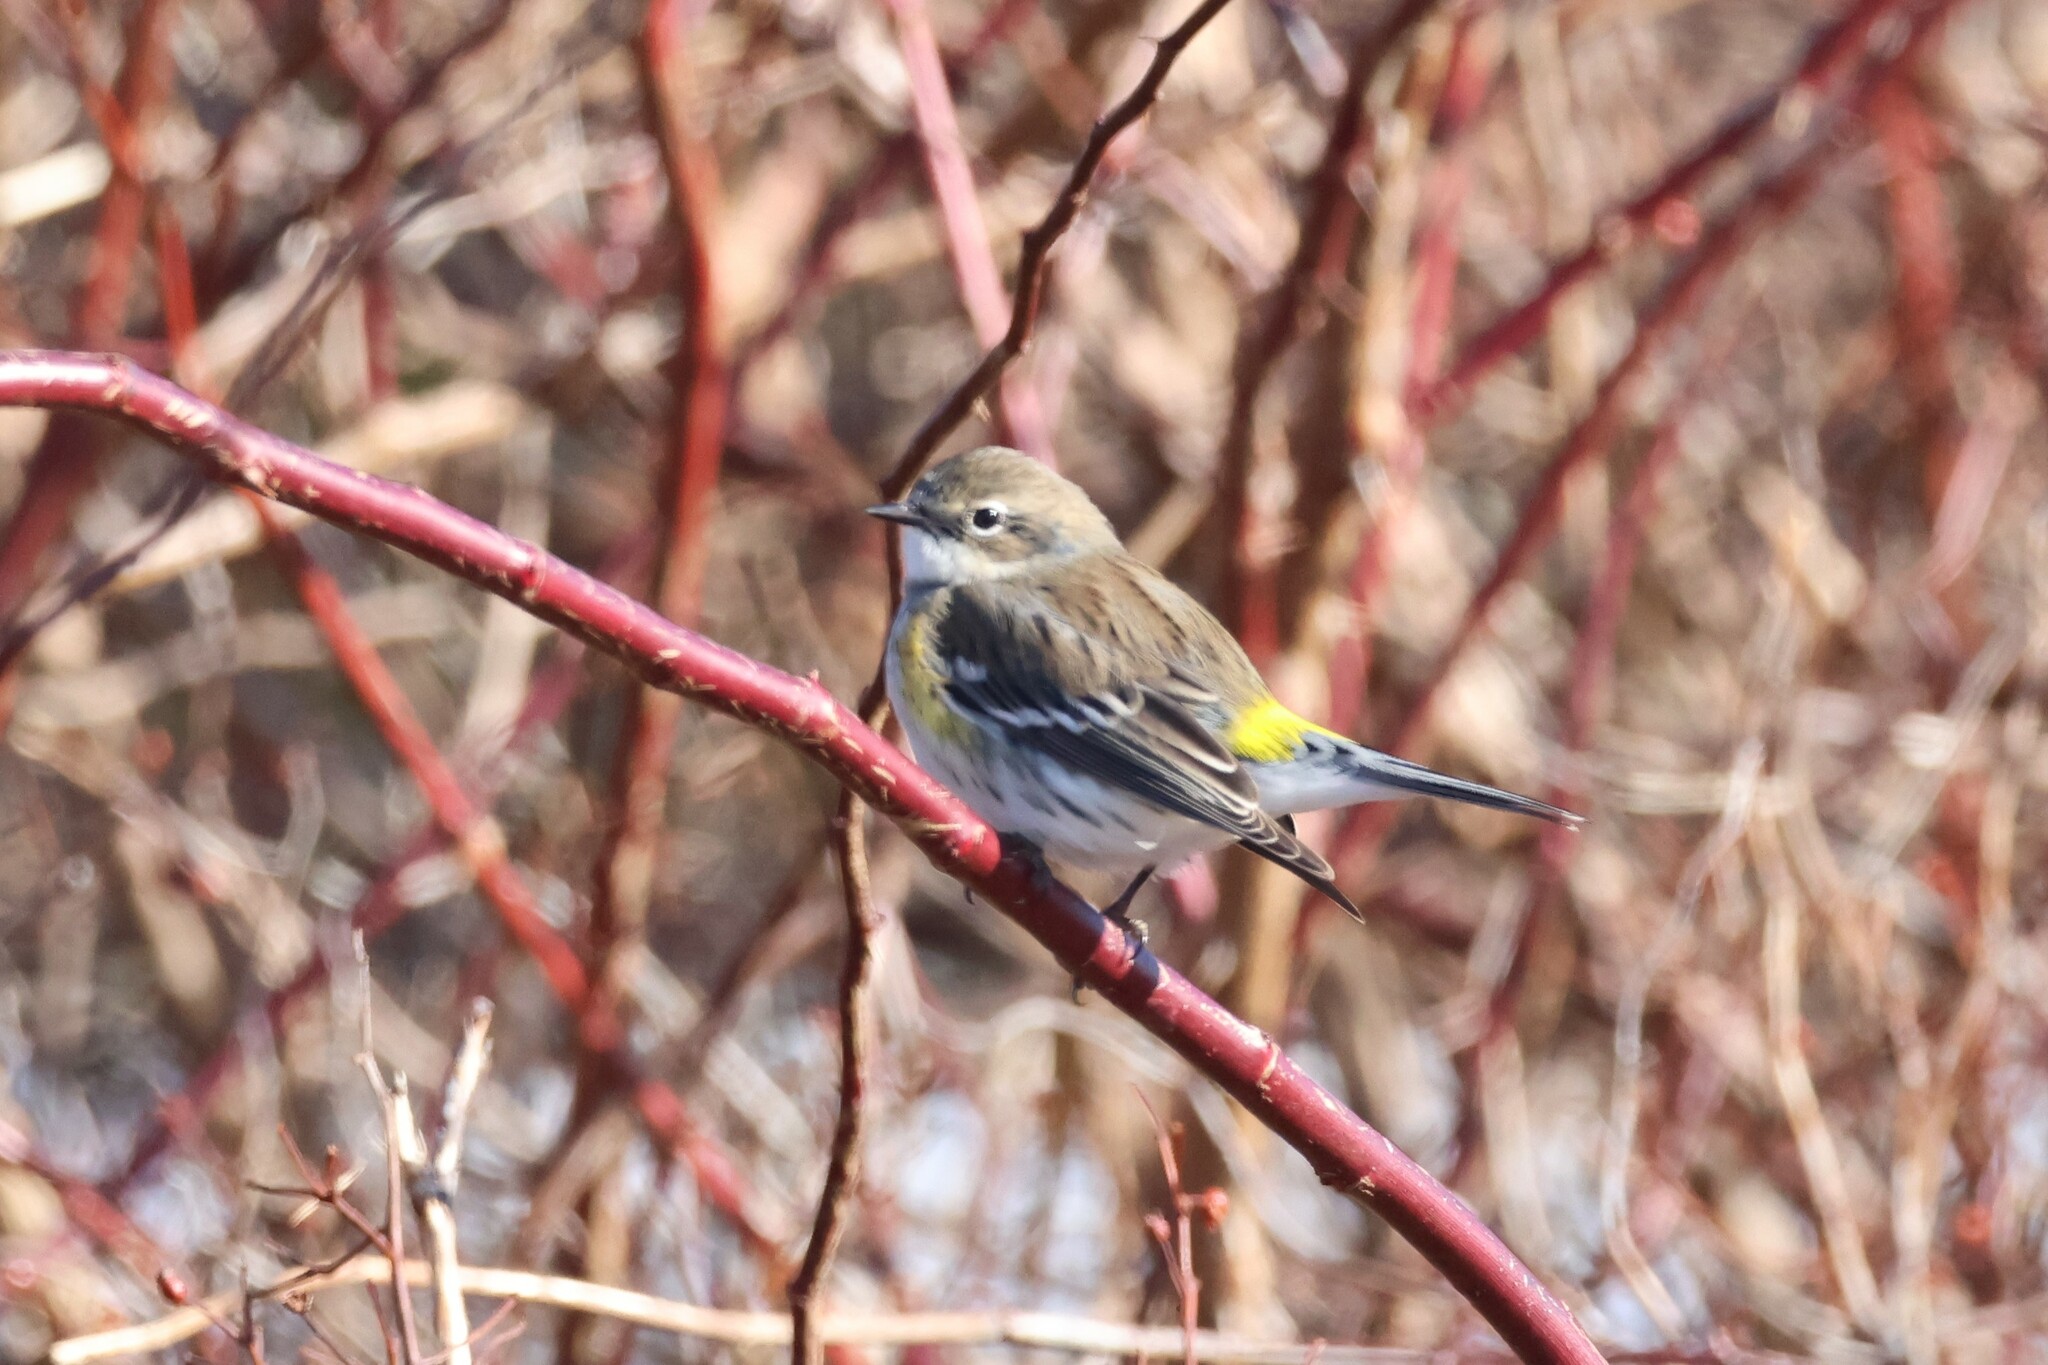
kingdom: Animalia
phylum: Chordata
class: Aves
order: Passeriformes
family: Parulidae
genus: Setophaga
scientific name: Setophaga coronata
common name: Myrtle warbler
